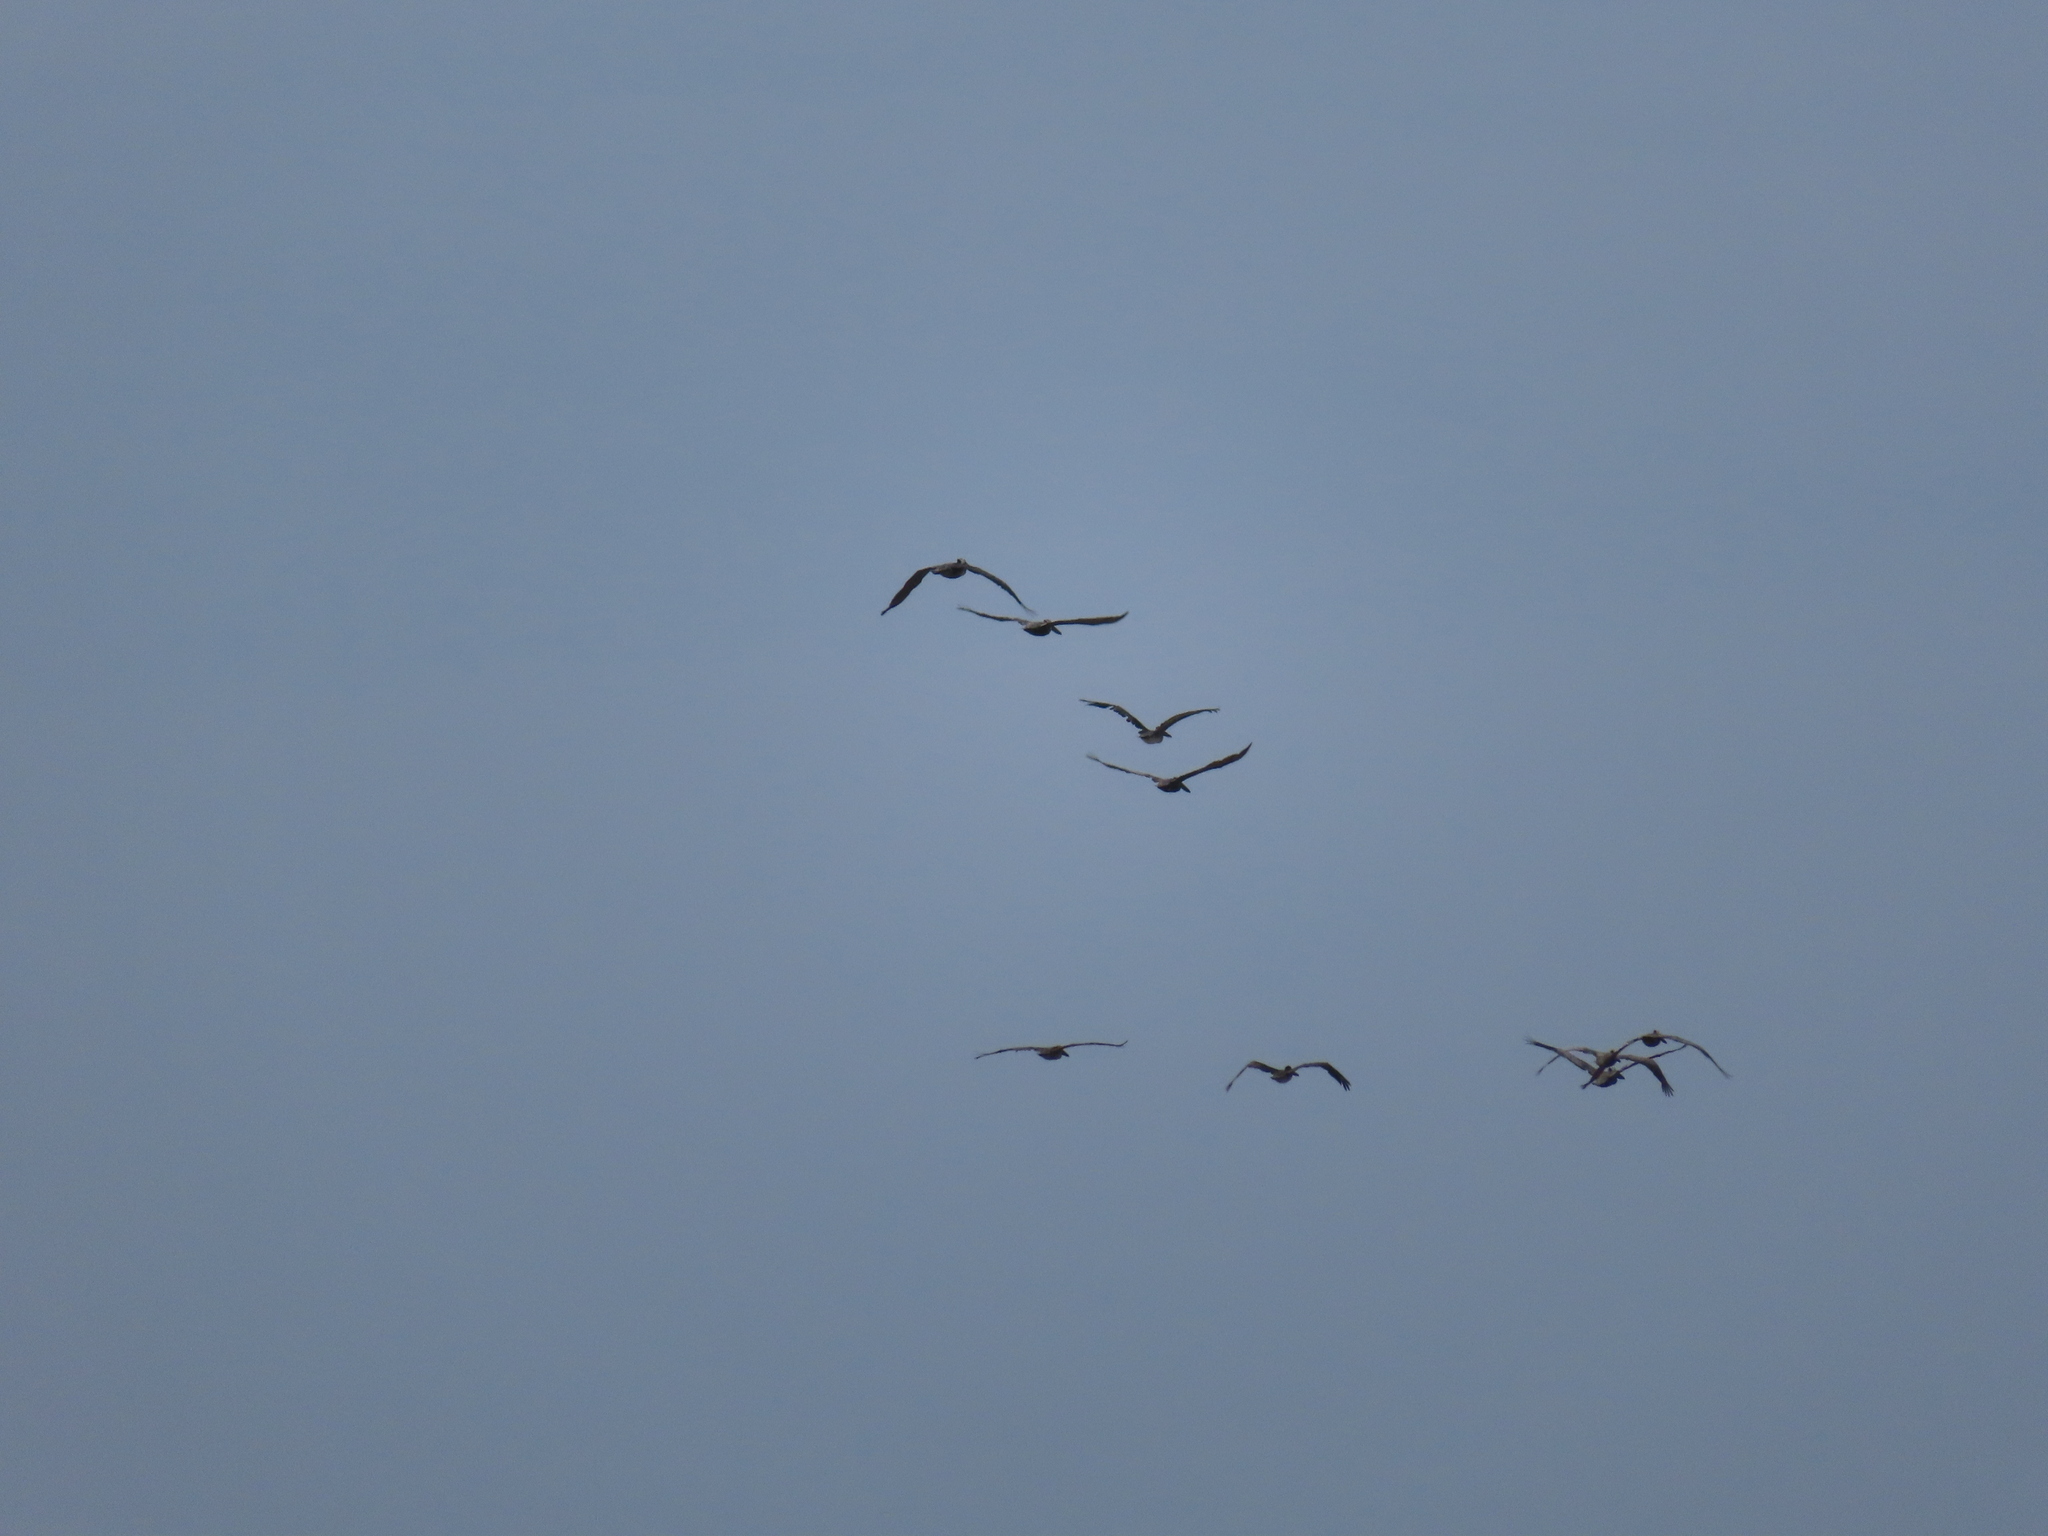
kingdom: Animalia
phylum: Chordata
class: Aves
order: Pelecaniformes
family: Pelecanidae
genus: Pelecanus
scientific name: Pelecanus occidentalis
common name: Brown pelican
